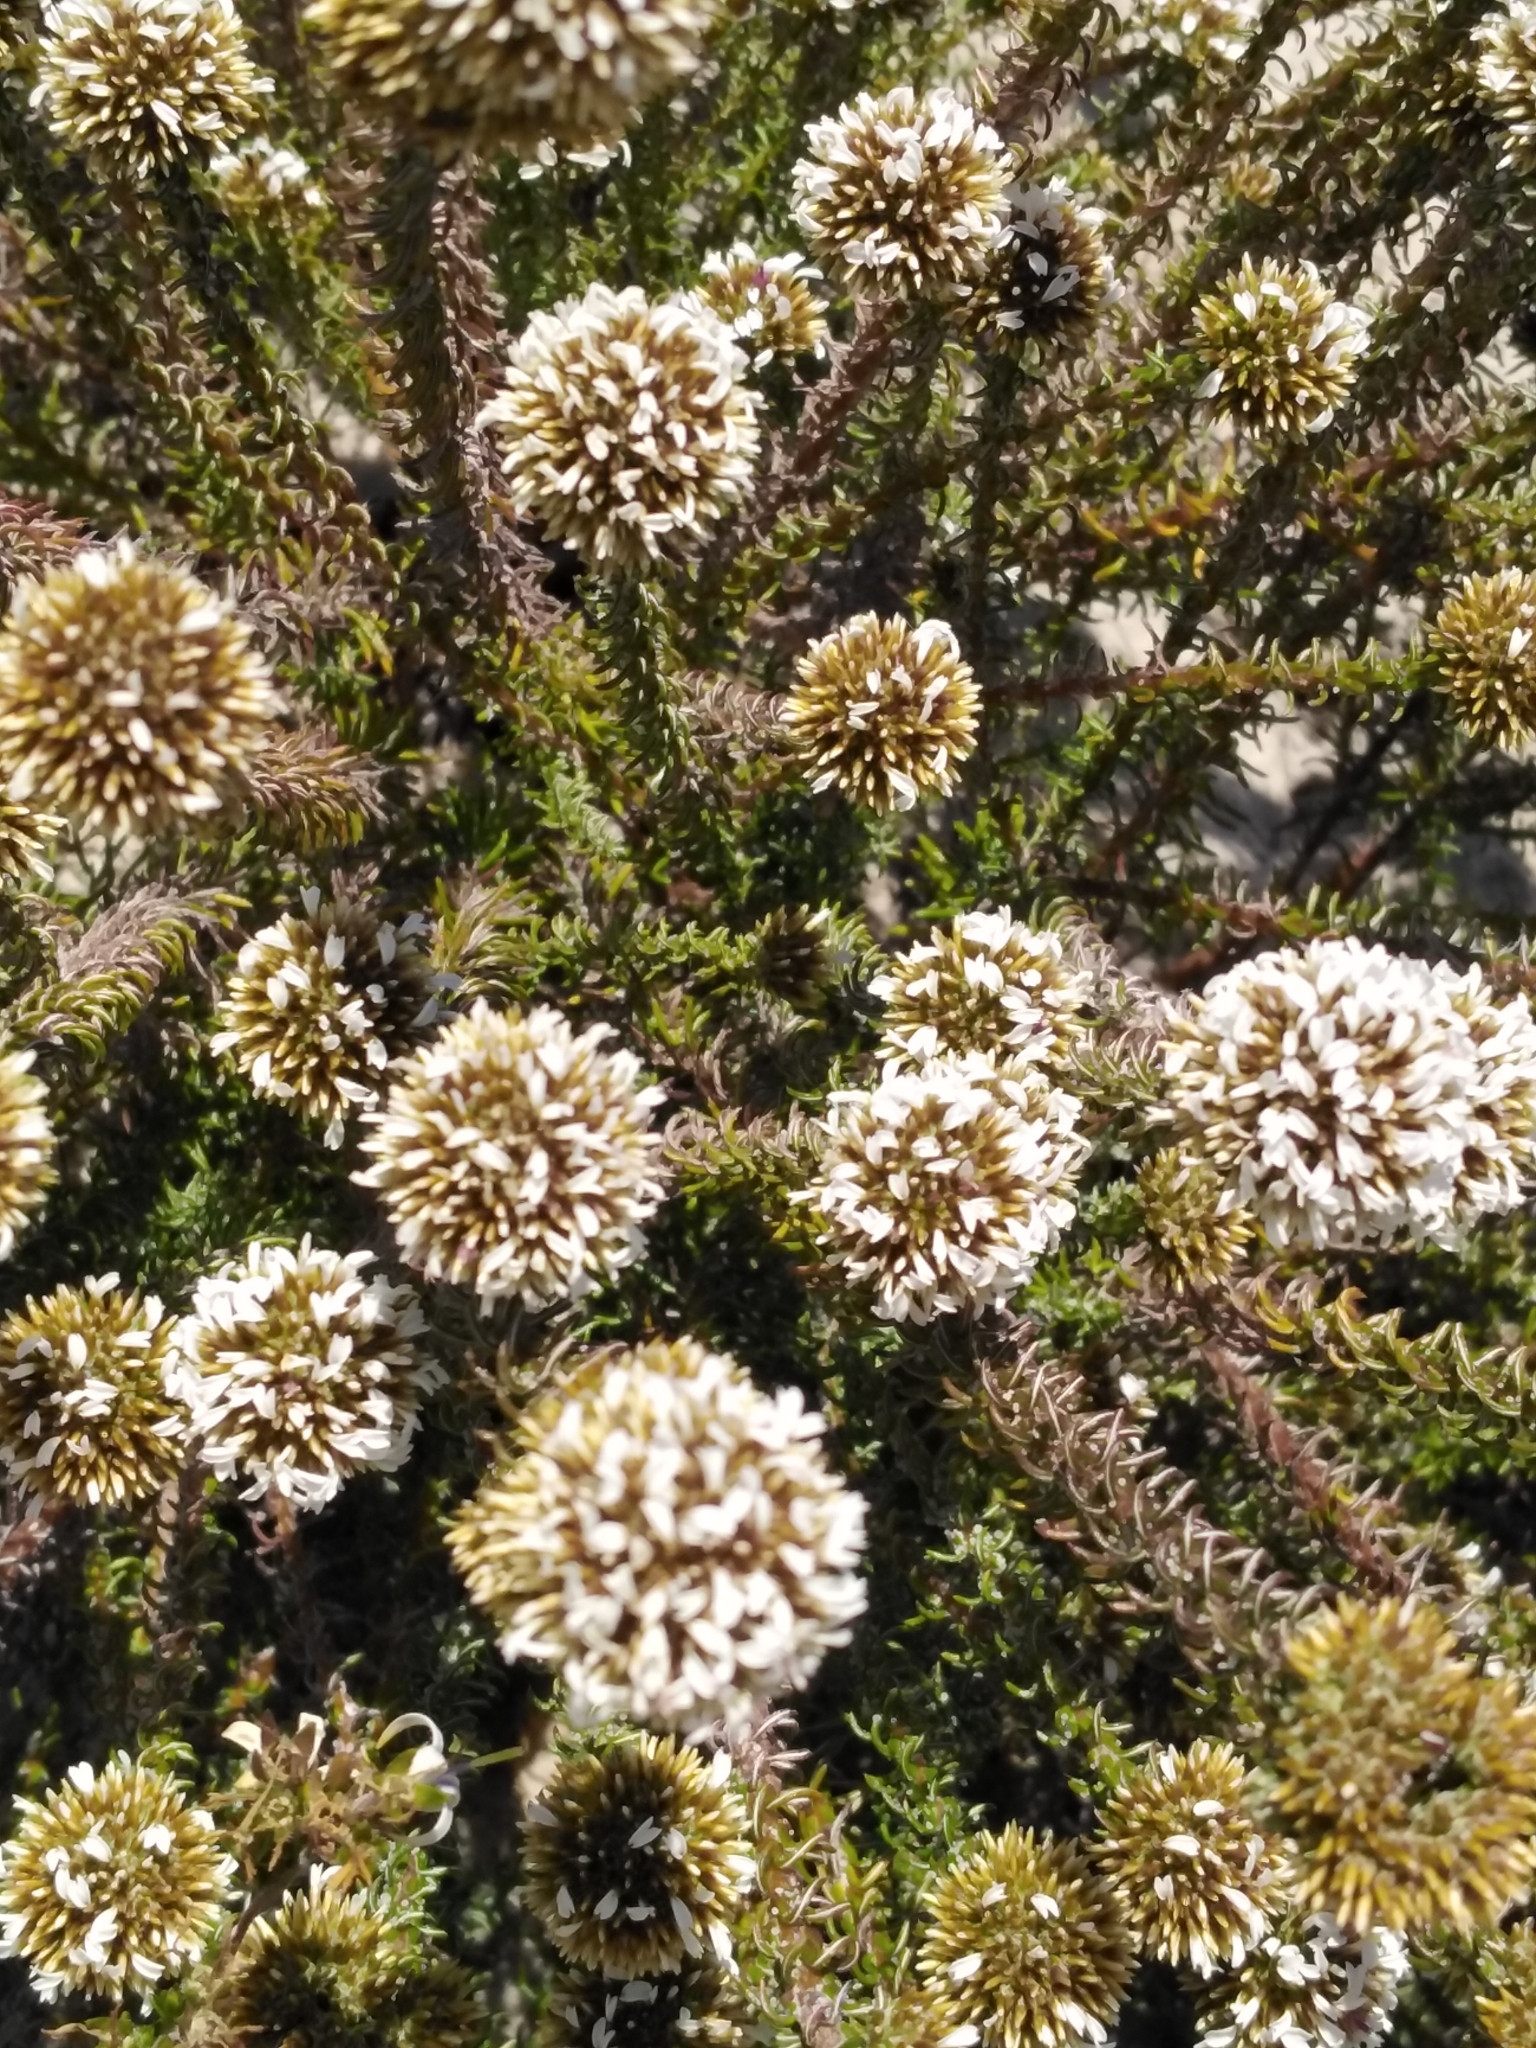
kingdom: Plantae
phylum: Tracheophyta
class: Magnoliopsida
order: Asterales
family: Asteraceae
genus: Disparago
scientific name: Disparago ericoides
